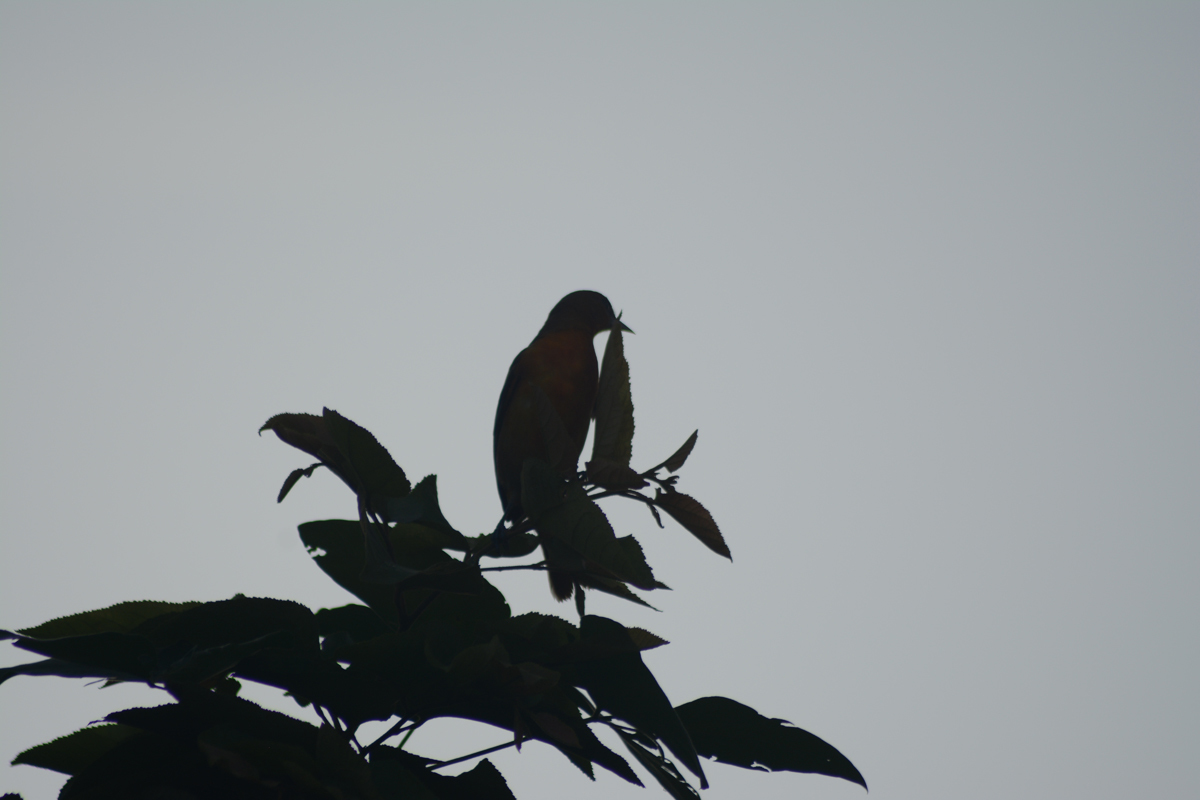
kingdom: Animalia
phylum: Chordata
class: Aves
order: Passeriformes
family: Icteridae
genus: Icterus
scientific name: Icterus galbula
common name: Baltimore oriole
